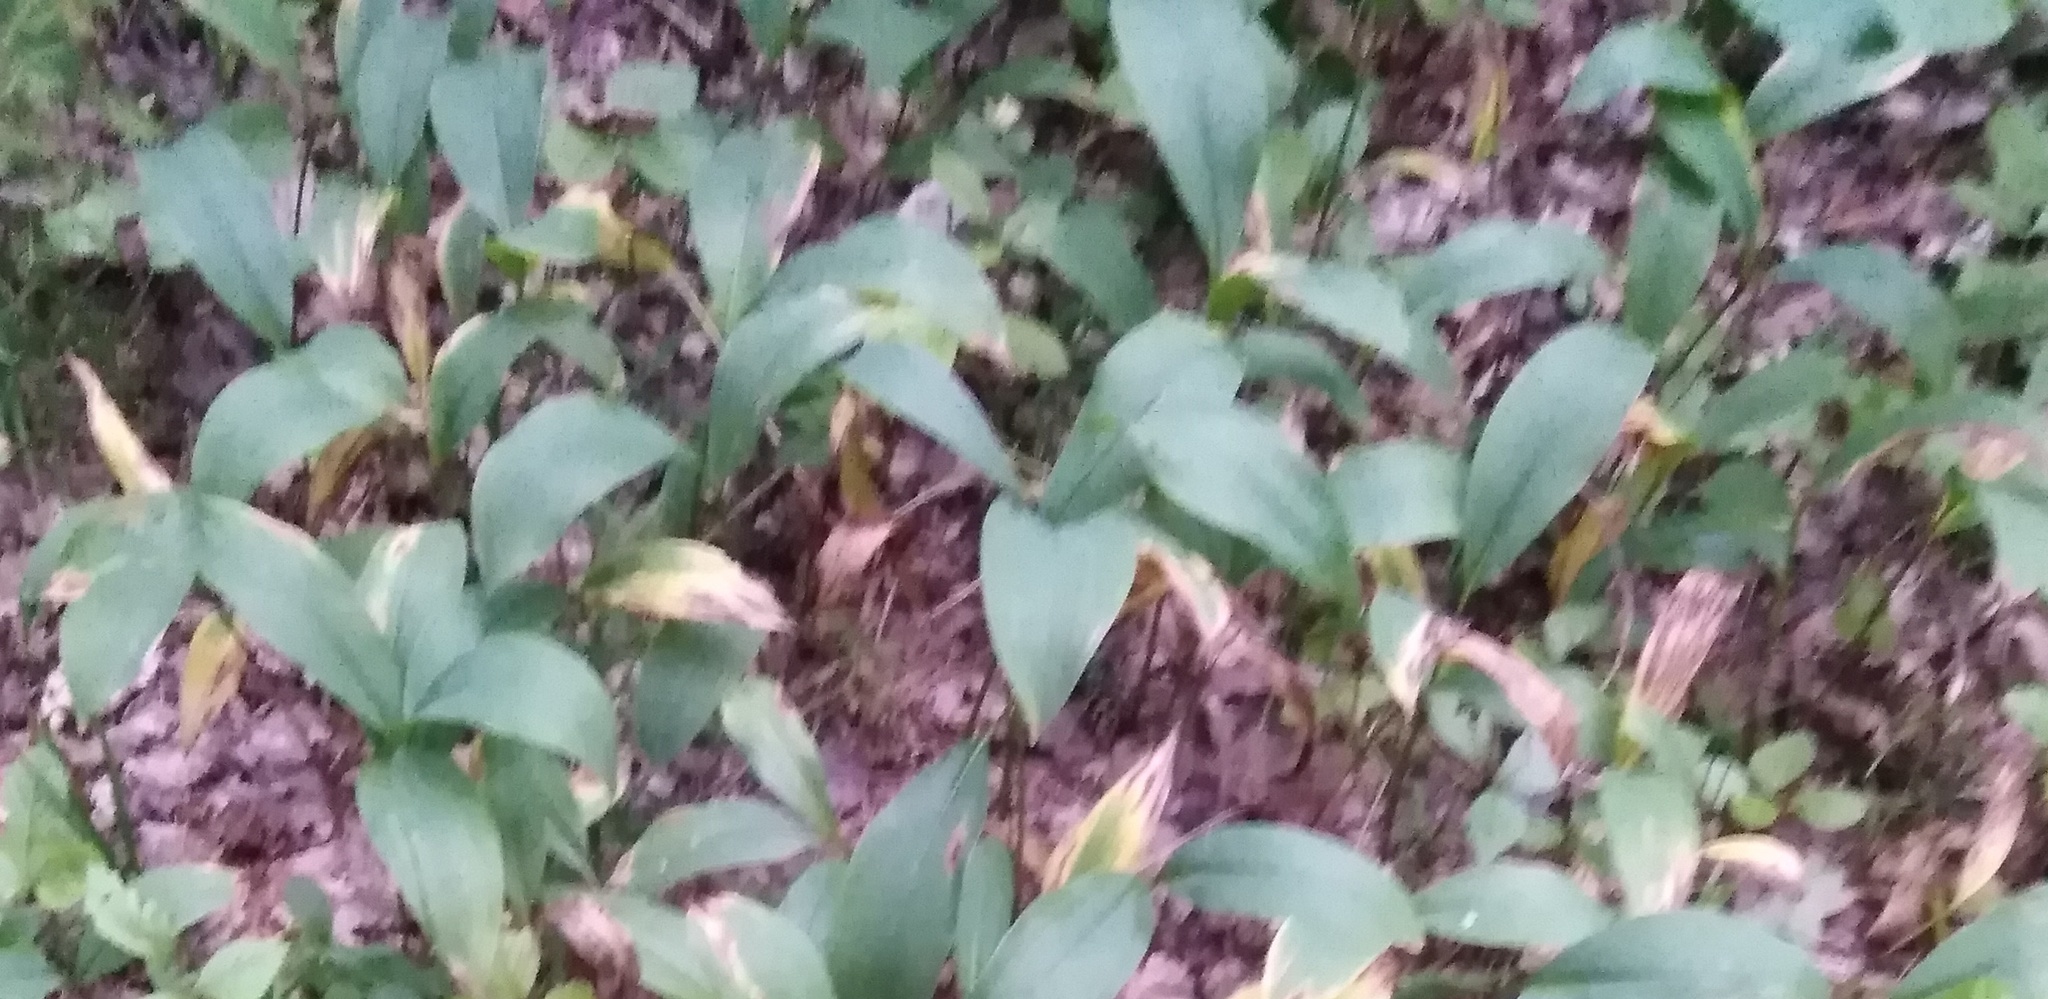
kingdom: Plantae
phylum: Tracheophyta
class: Liliopsida
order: Asparagales
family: Asparagaceae
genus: Convallaria
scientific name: Convallaria majalis
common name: Lily-of-the-valley
